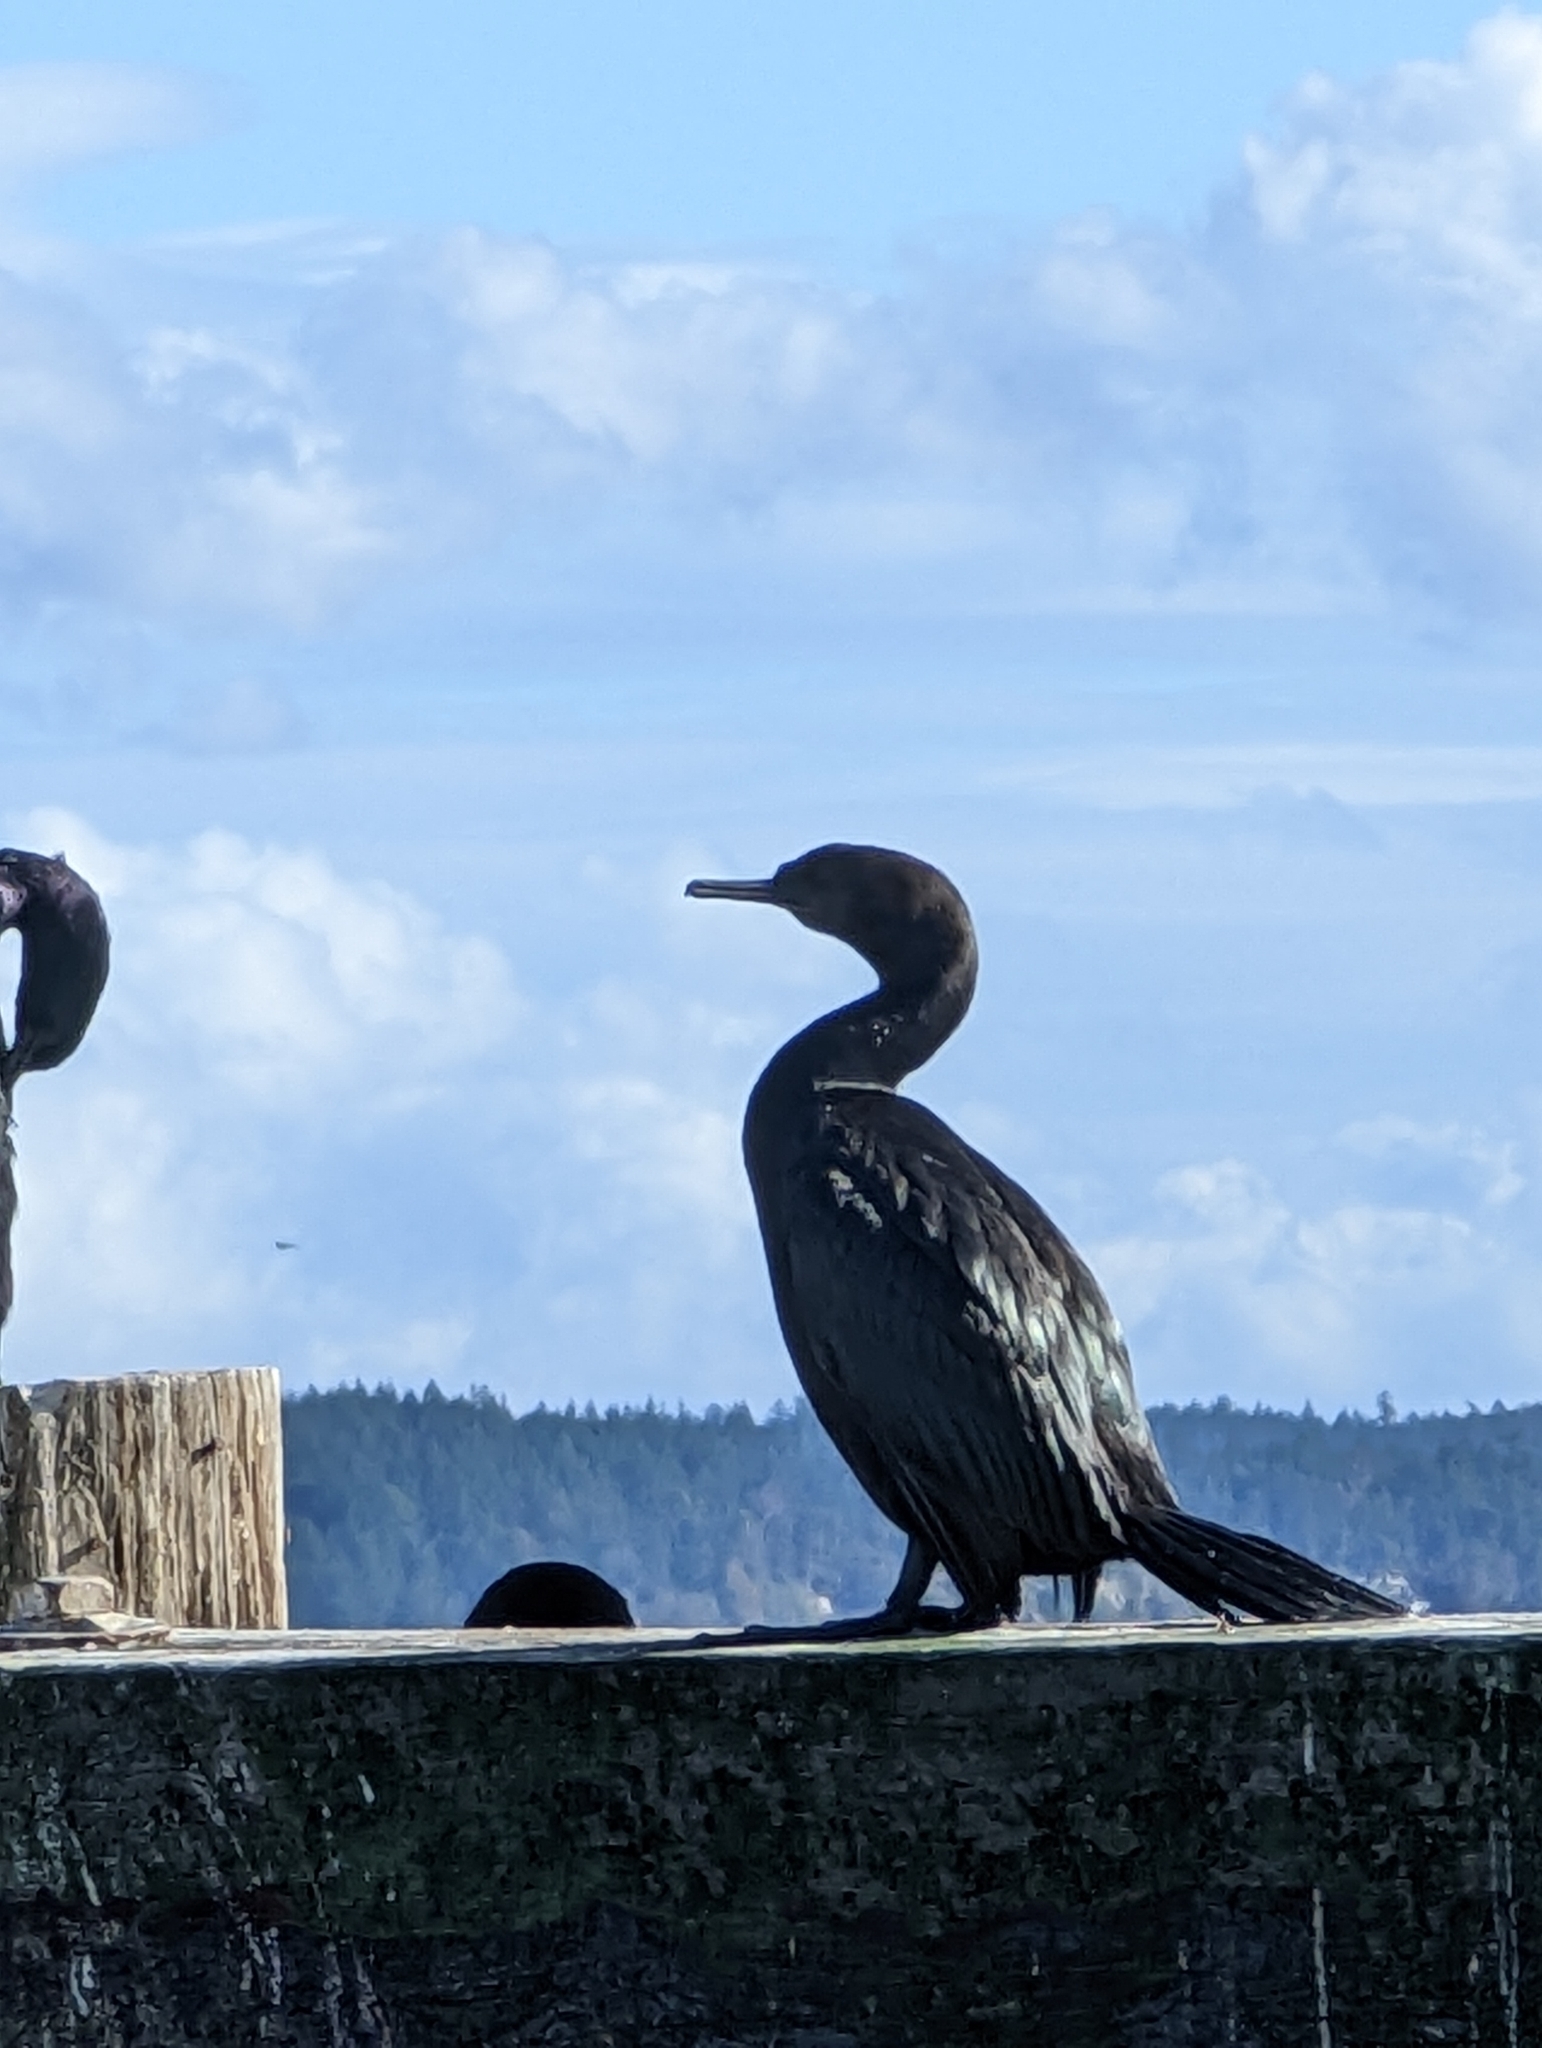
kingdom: Animalia
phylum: Chordata
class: Aves
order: Suliformes
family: Phalacrocoracidae
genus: Phalacrocorax
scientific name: Phalacrocorax pelagicus
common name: Pelagic cormorant
